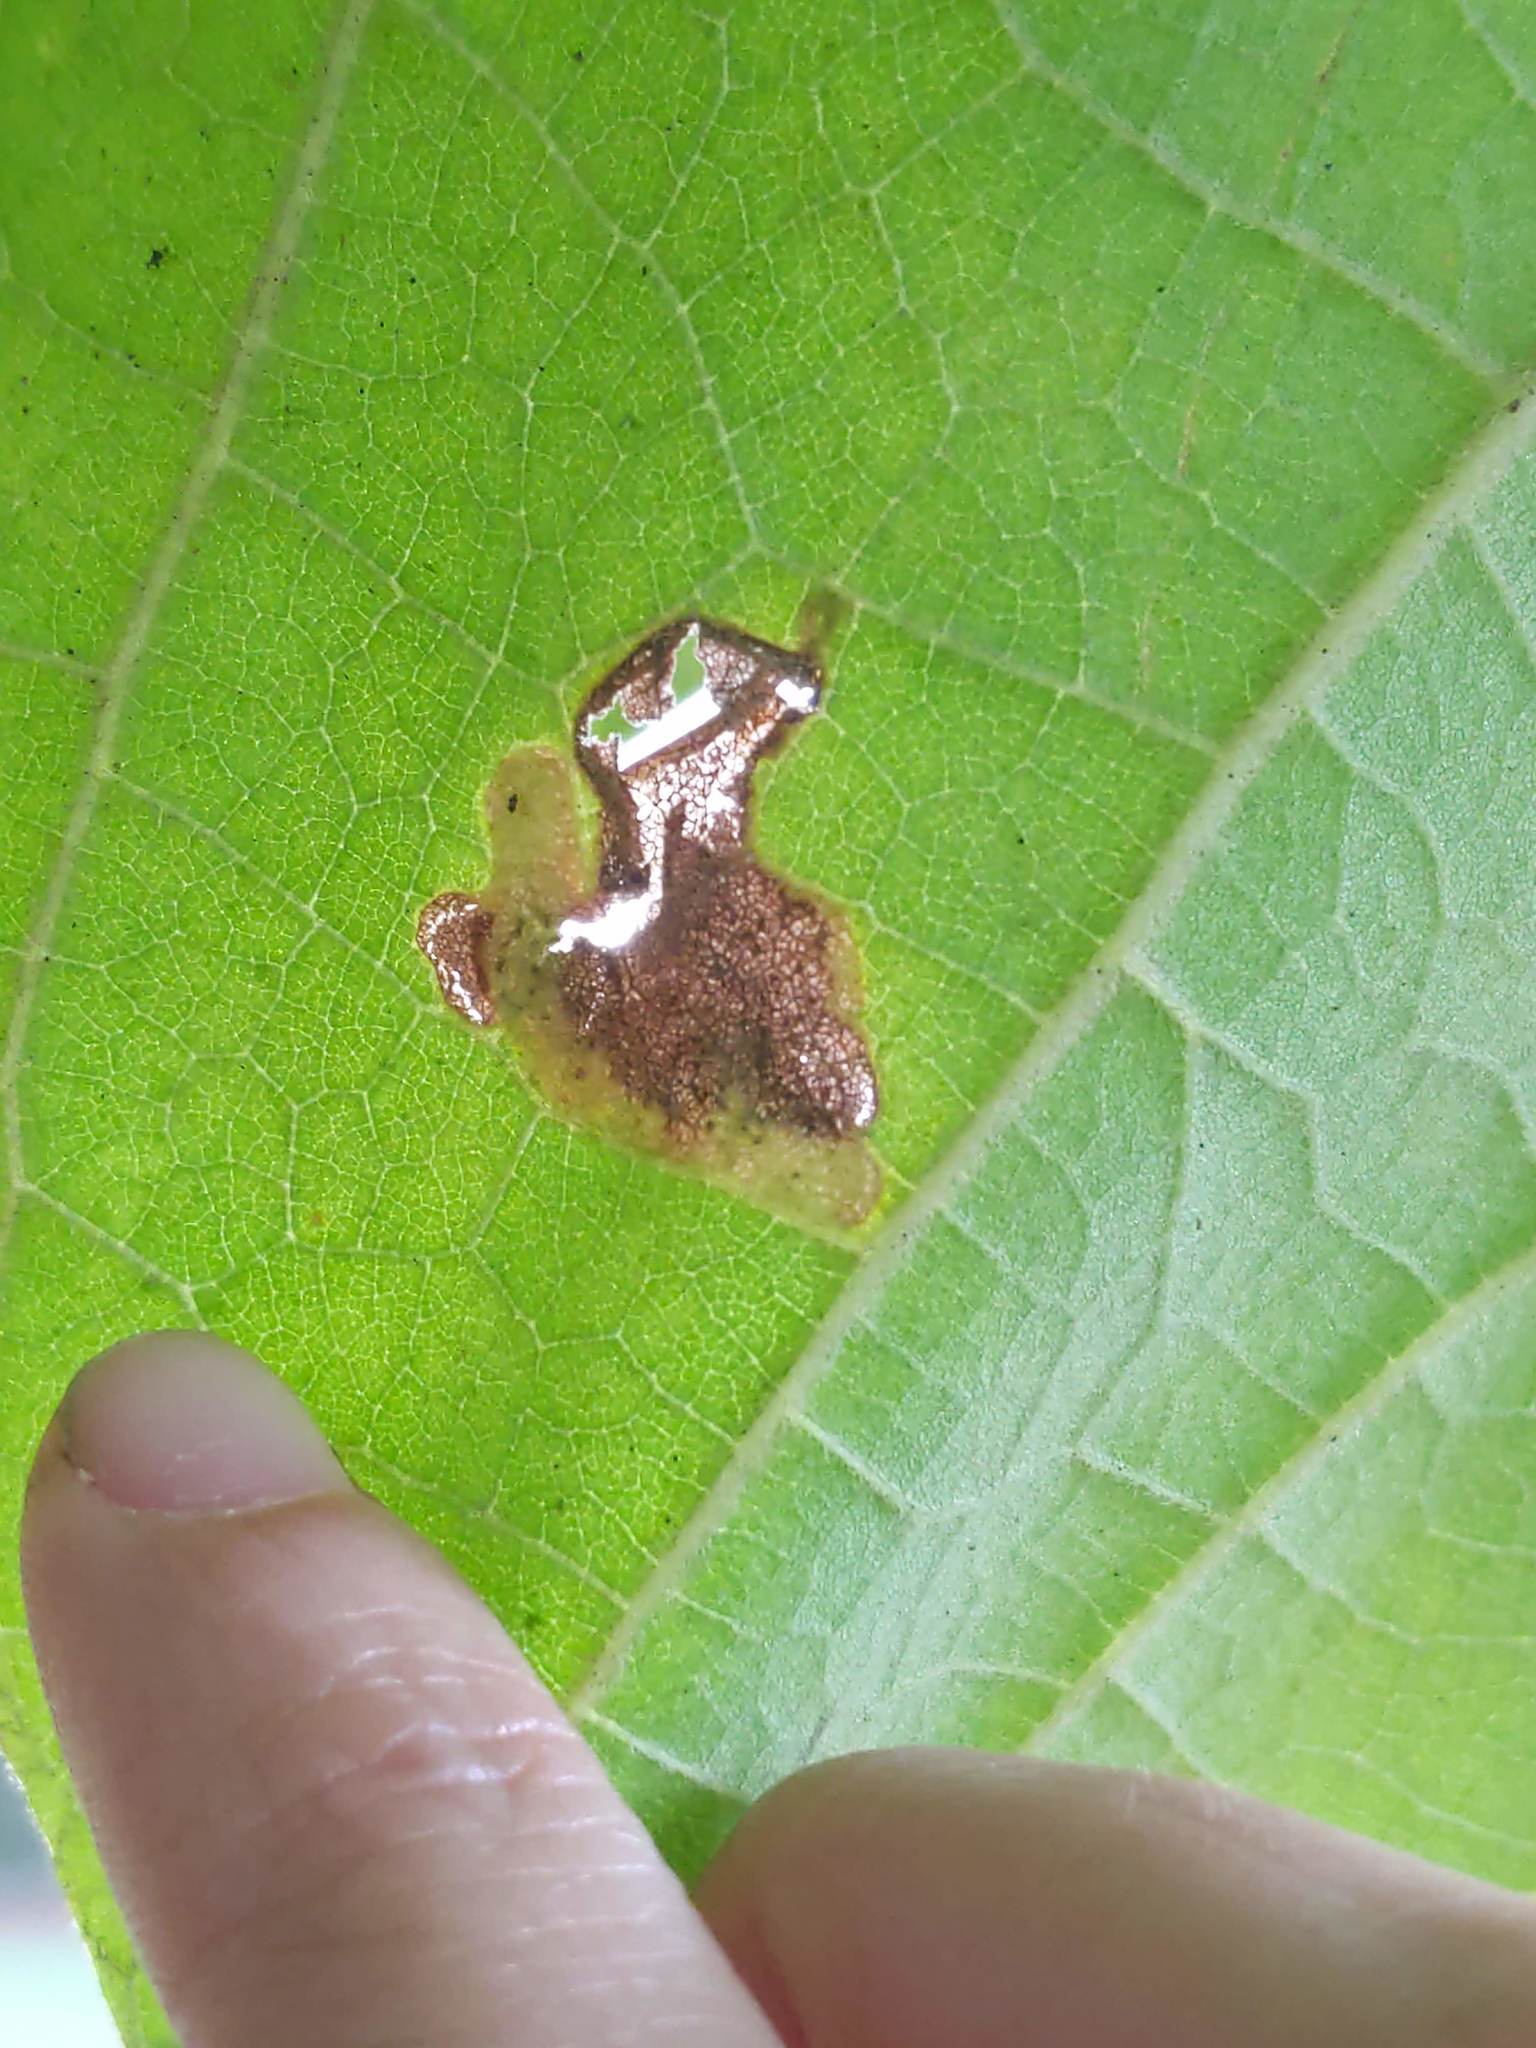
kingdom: Animalia
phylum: Arthropoda
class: Insecta
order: Diptera
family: Agromyzidae
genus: Amauromyza
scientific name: Amauromyza pleuralis
